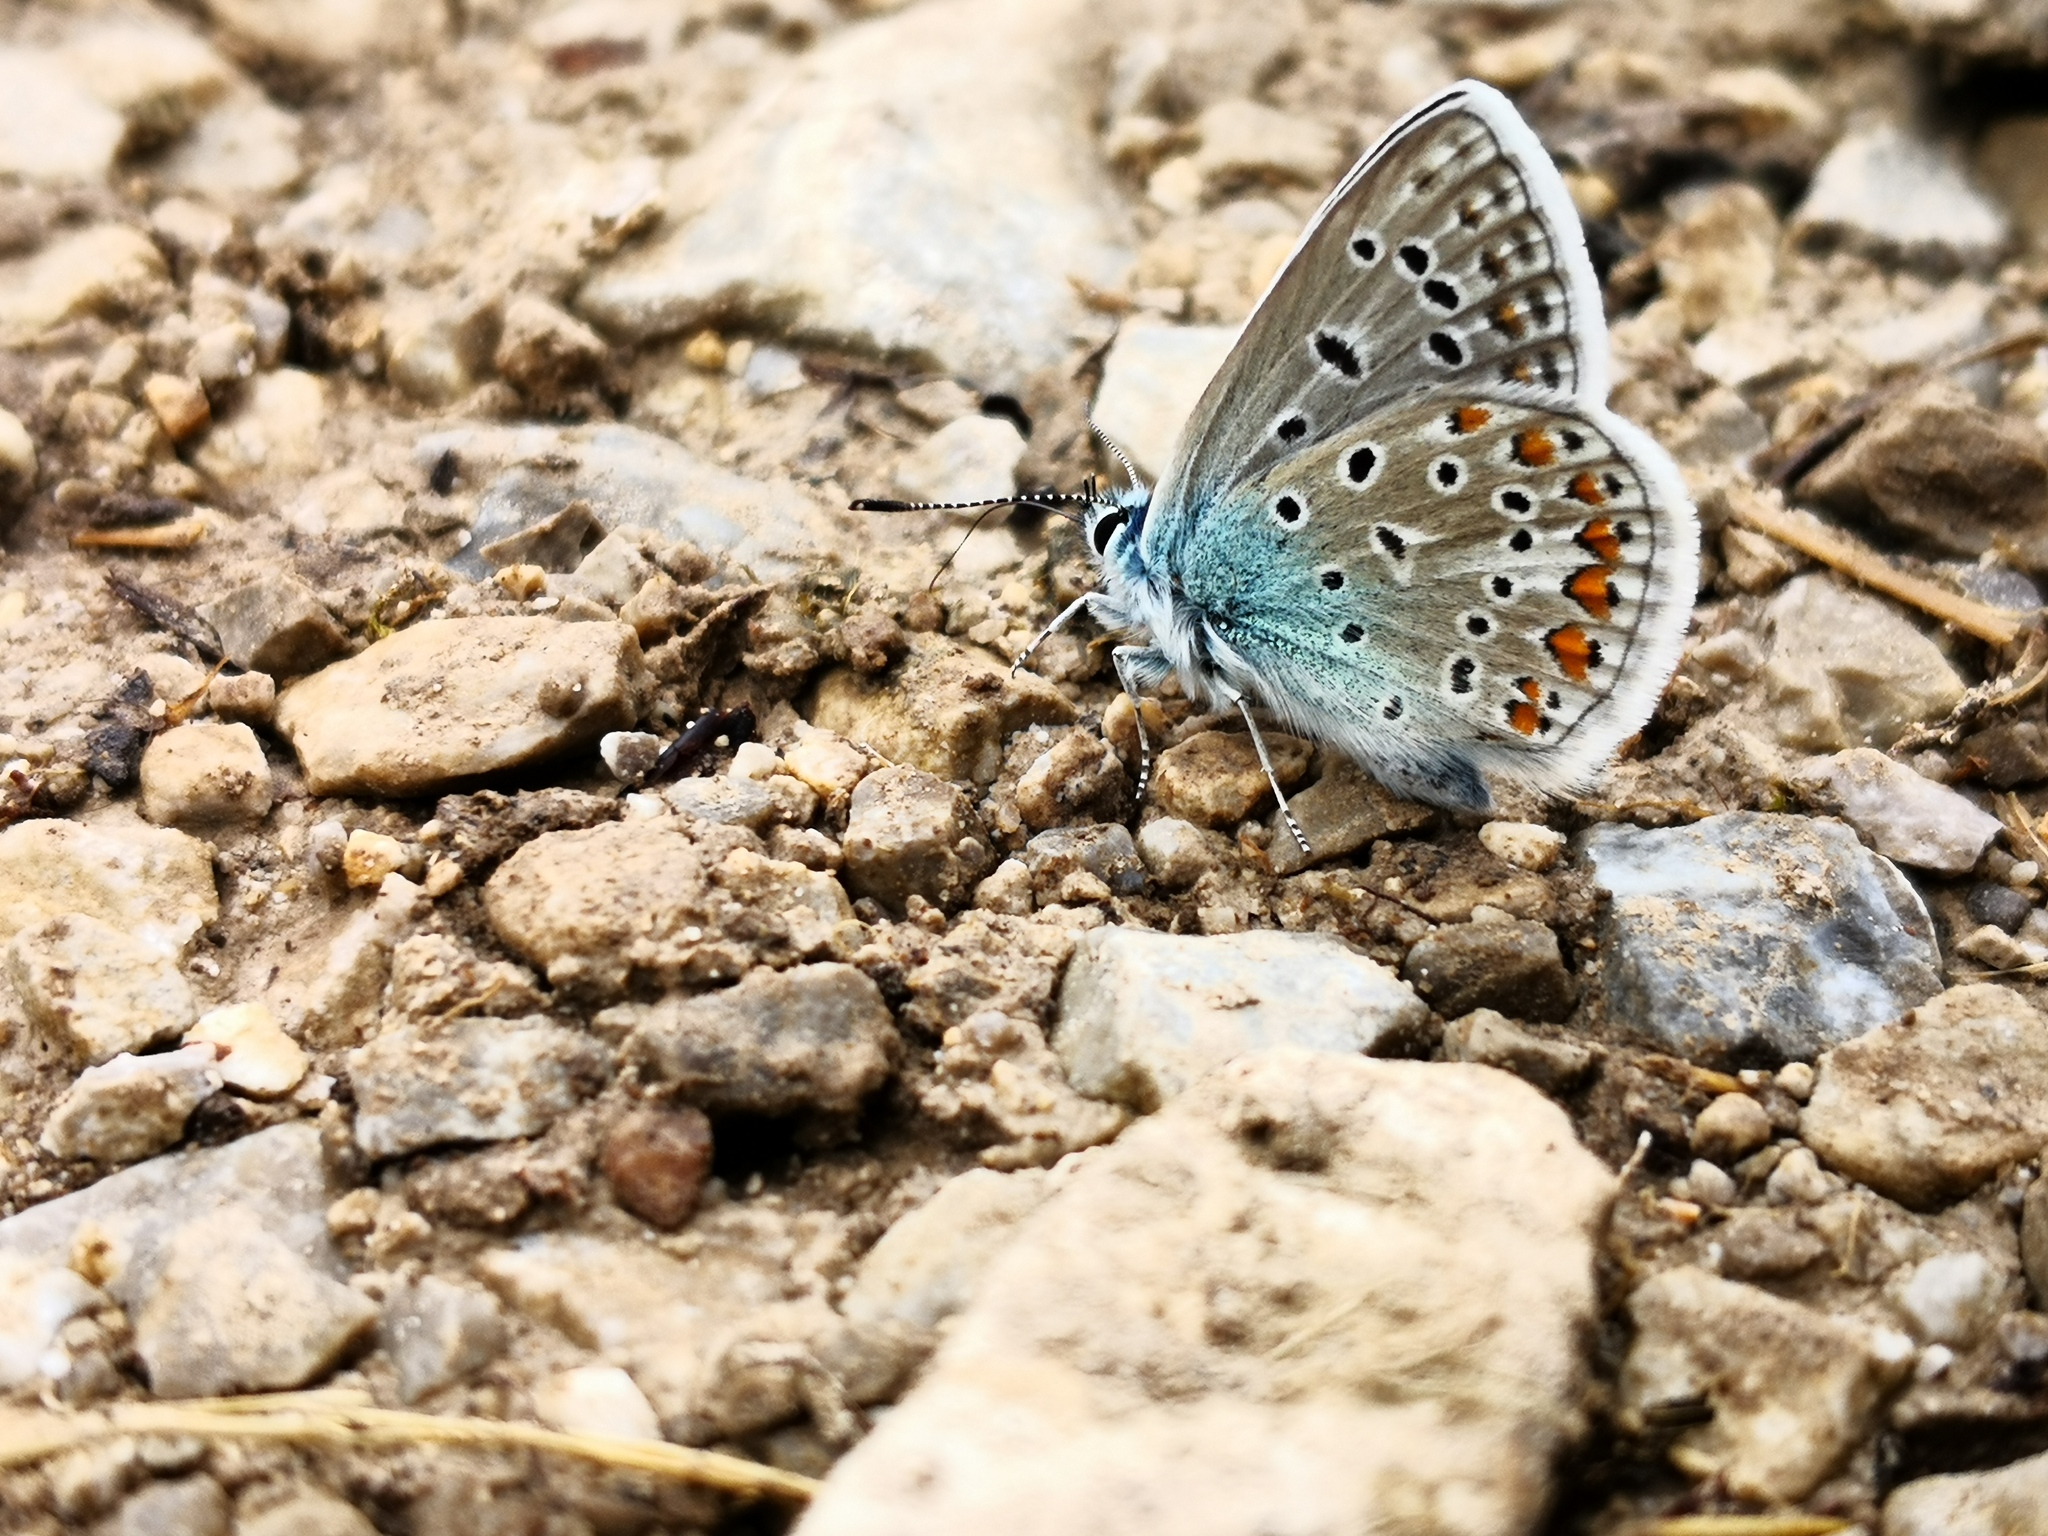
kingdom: Animalia
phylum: Arthropoda
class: Insecta
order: Lepidoptera
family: Lycaenidae
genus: Polyommatus
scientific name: Polyommatus icarus
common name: Common blue
